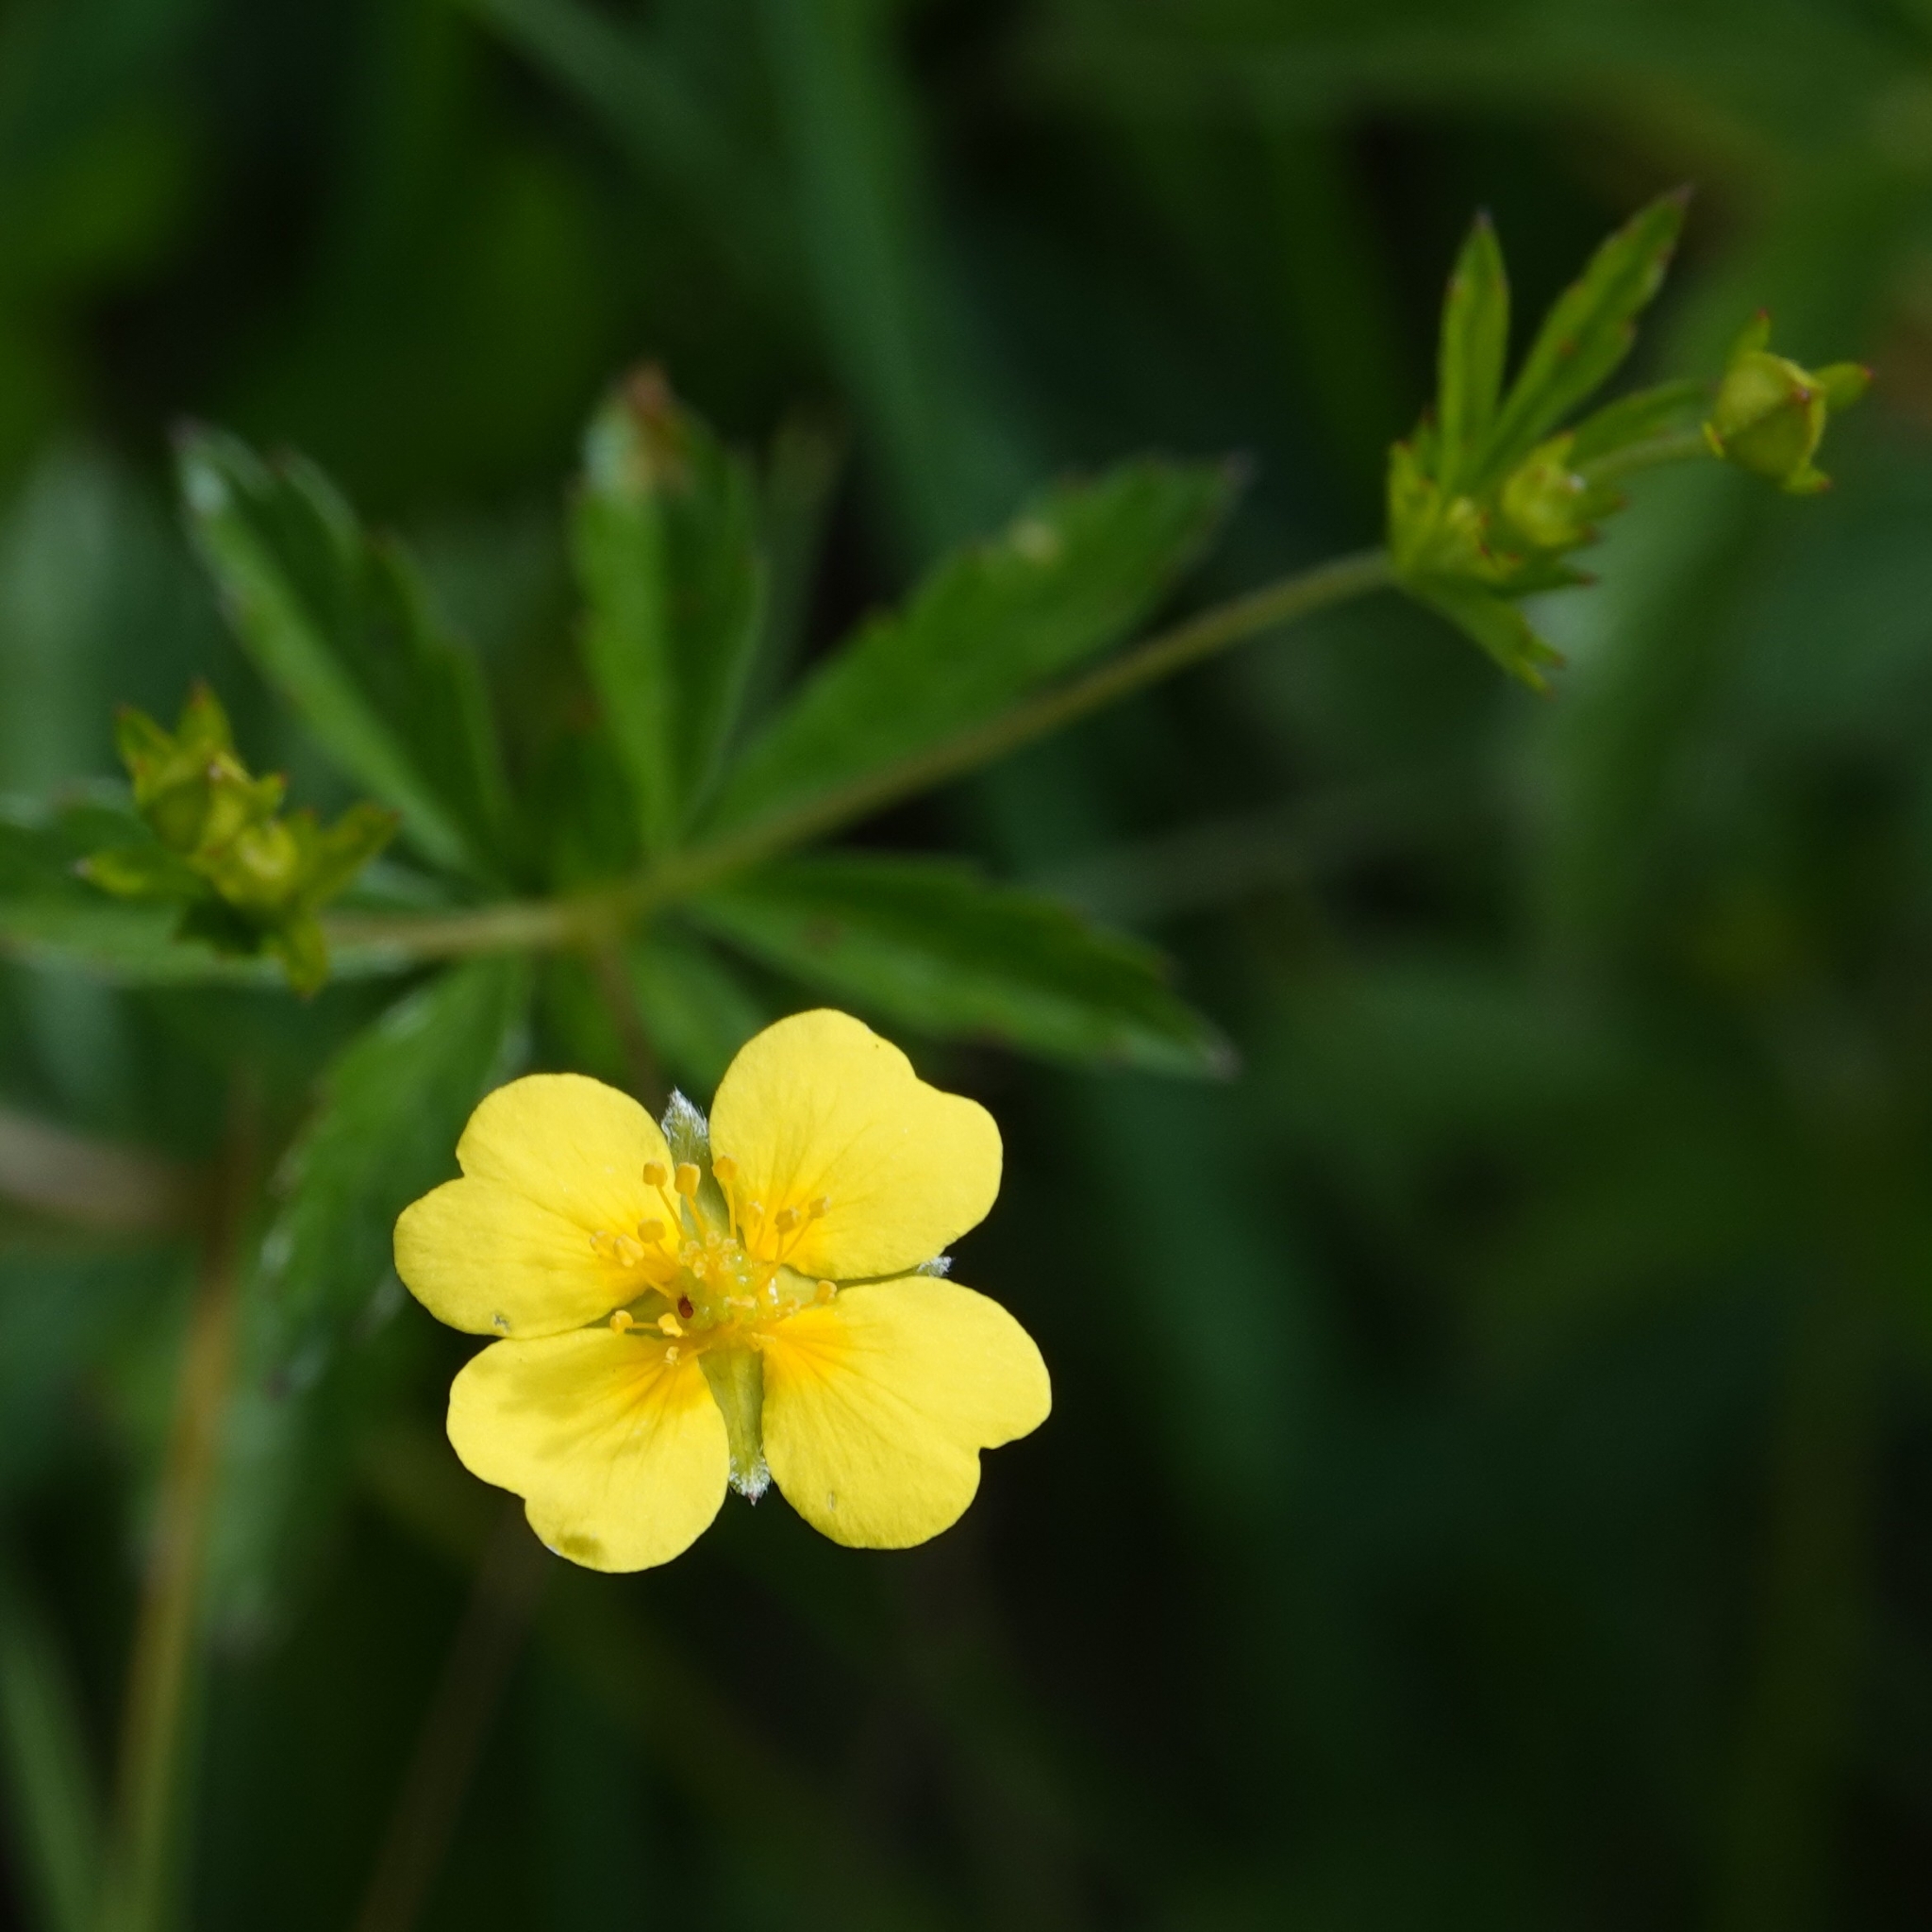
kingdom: Plantae
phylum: Tracheophyta
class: Magnoliopsida
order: Rosales
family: Rosaceae
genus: Potentilla
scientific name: Potentilla erecta
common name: Tormentil
